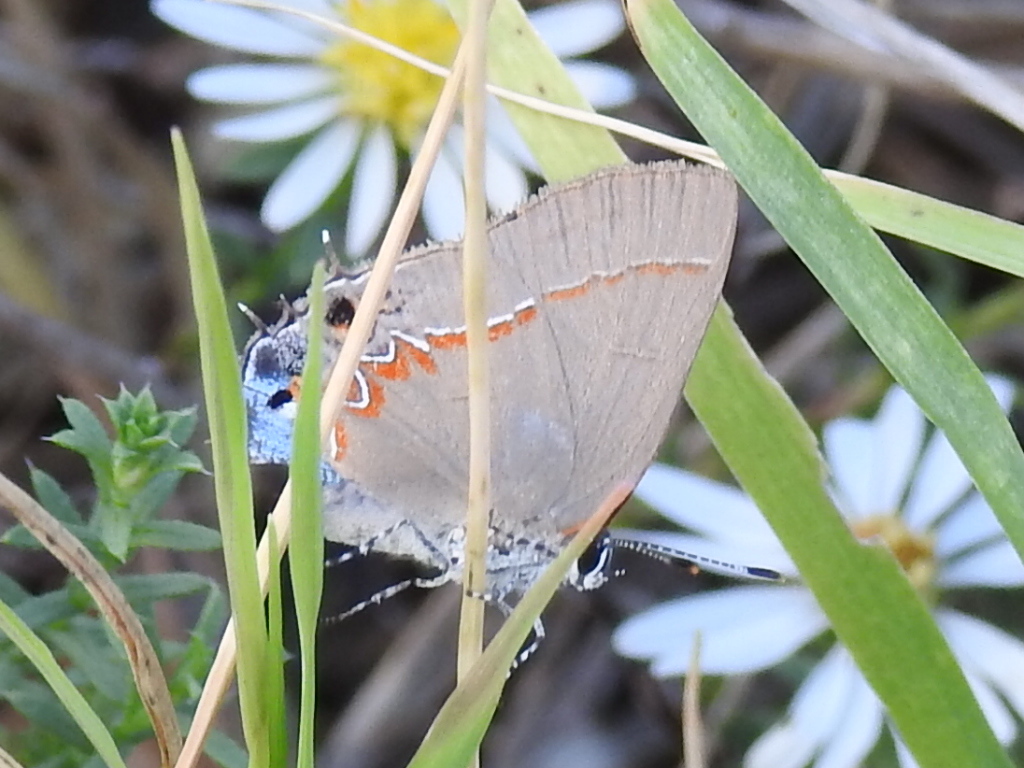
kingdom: Animalia
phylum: Arthropoda
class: Insecta
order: Lepidoptera
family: Lycaenidae
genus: Calycopis
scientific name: Calycopis isobeon
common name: Dusky-blue groundstreak
